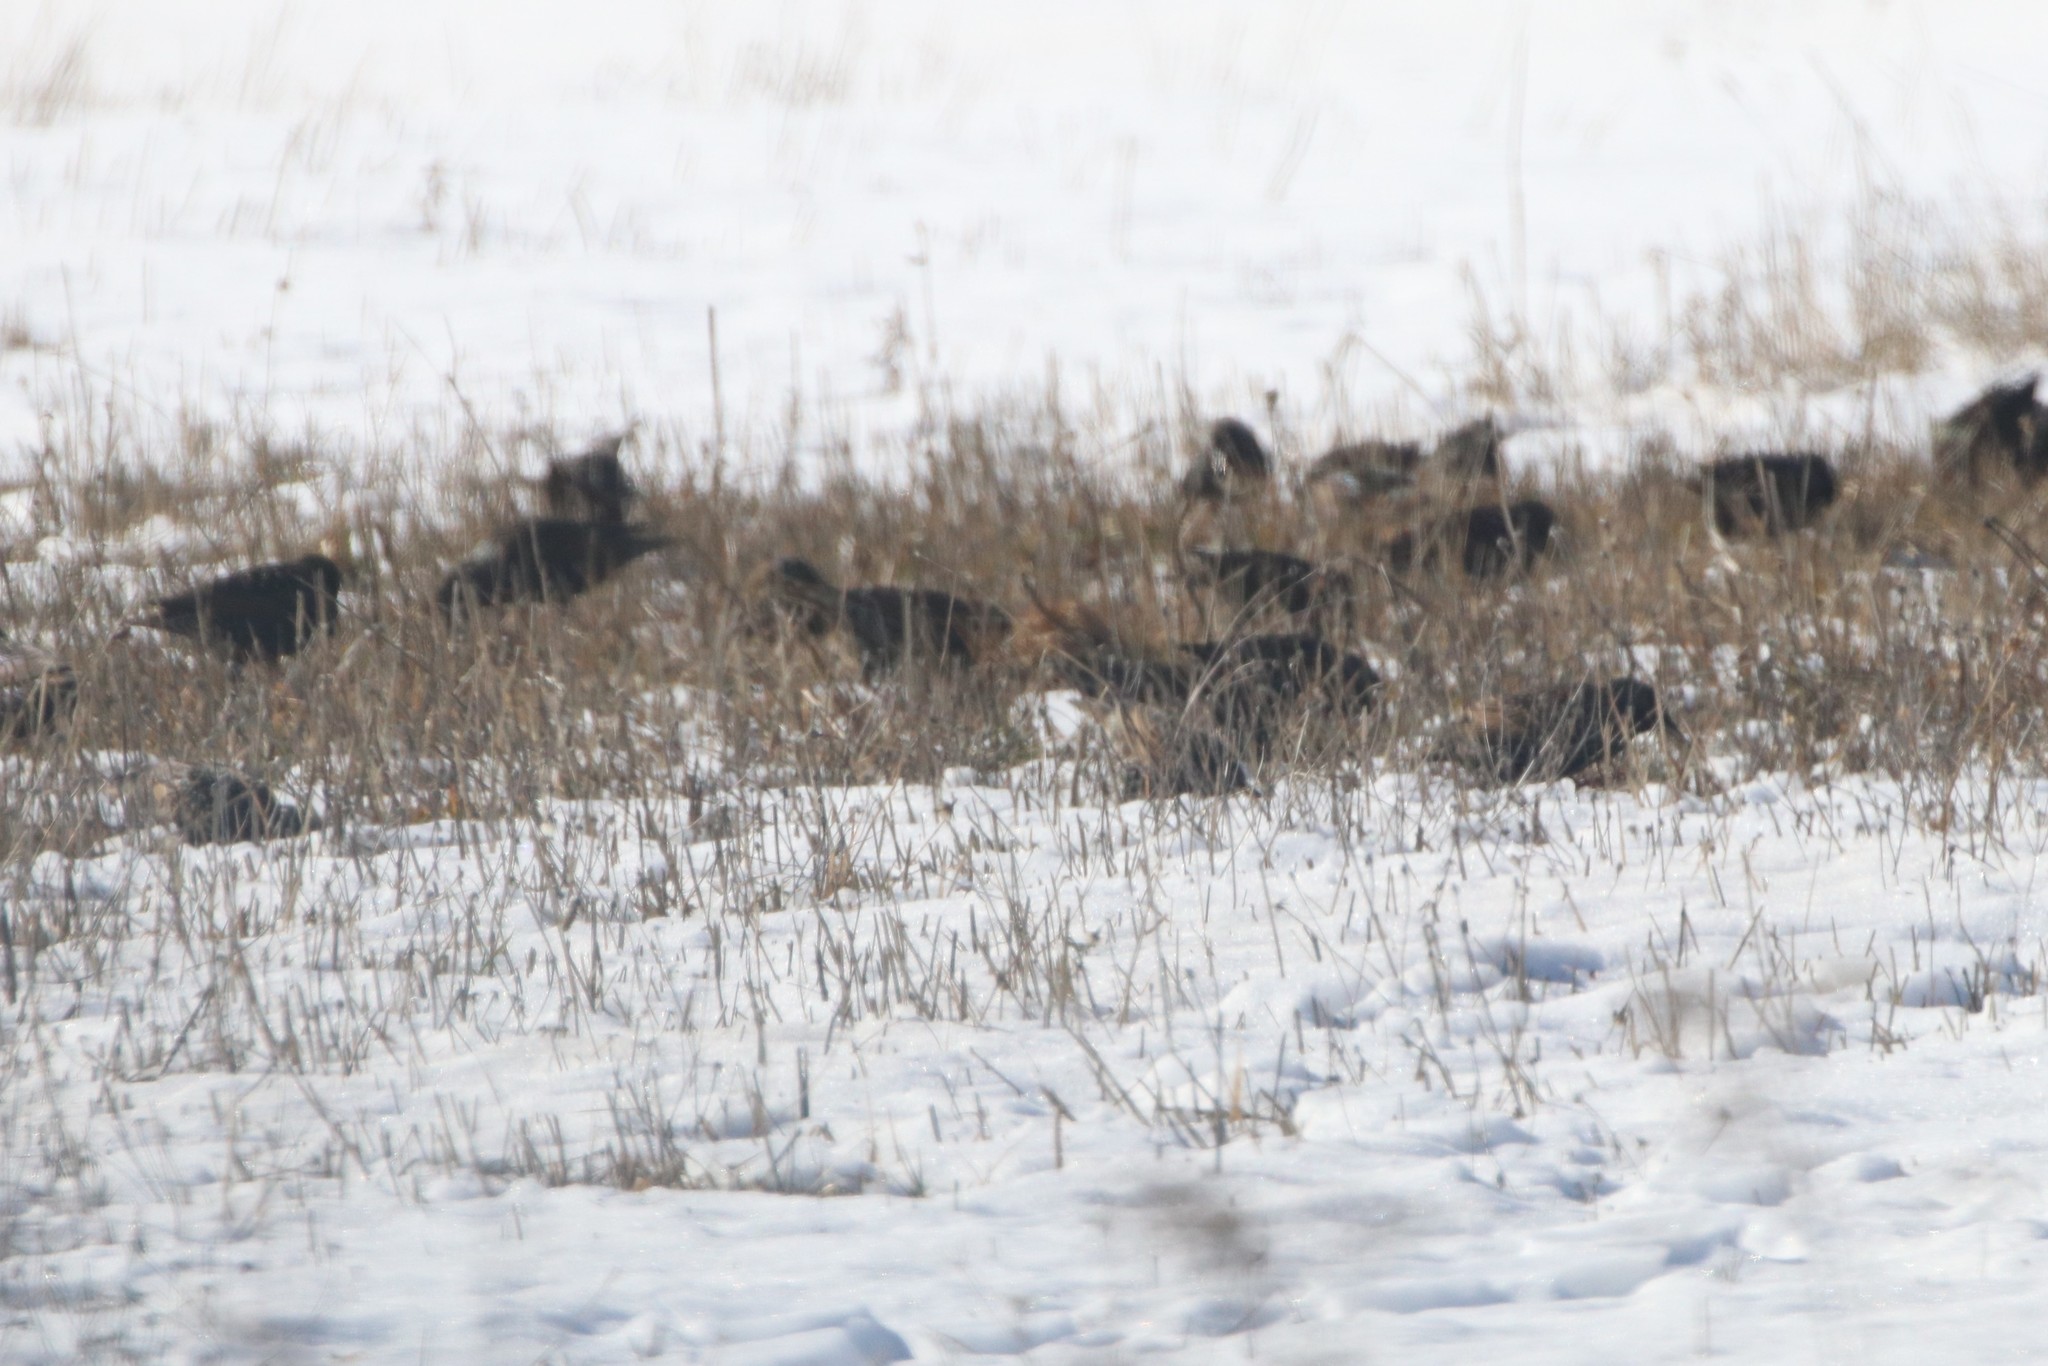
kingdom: Animalia
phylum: Chordata
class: Aves
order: Passeriformes
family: Sturnidae
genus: Sturnus
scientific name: Sturnus vulgaris
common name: Common starling
